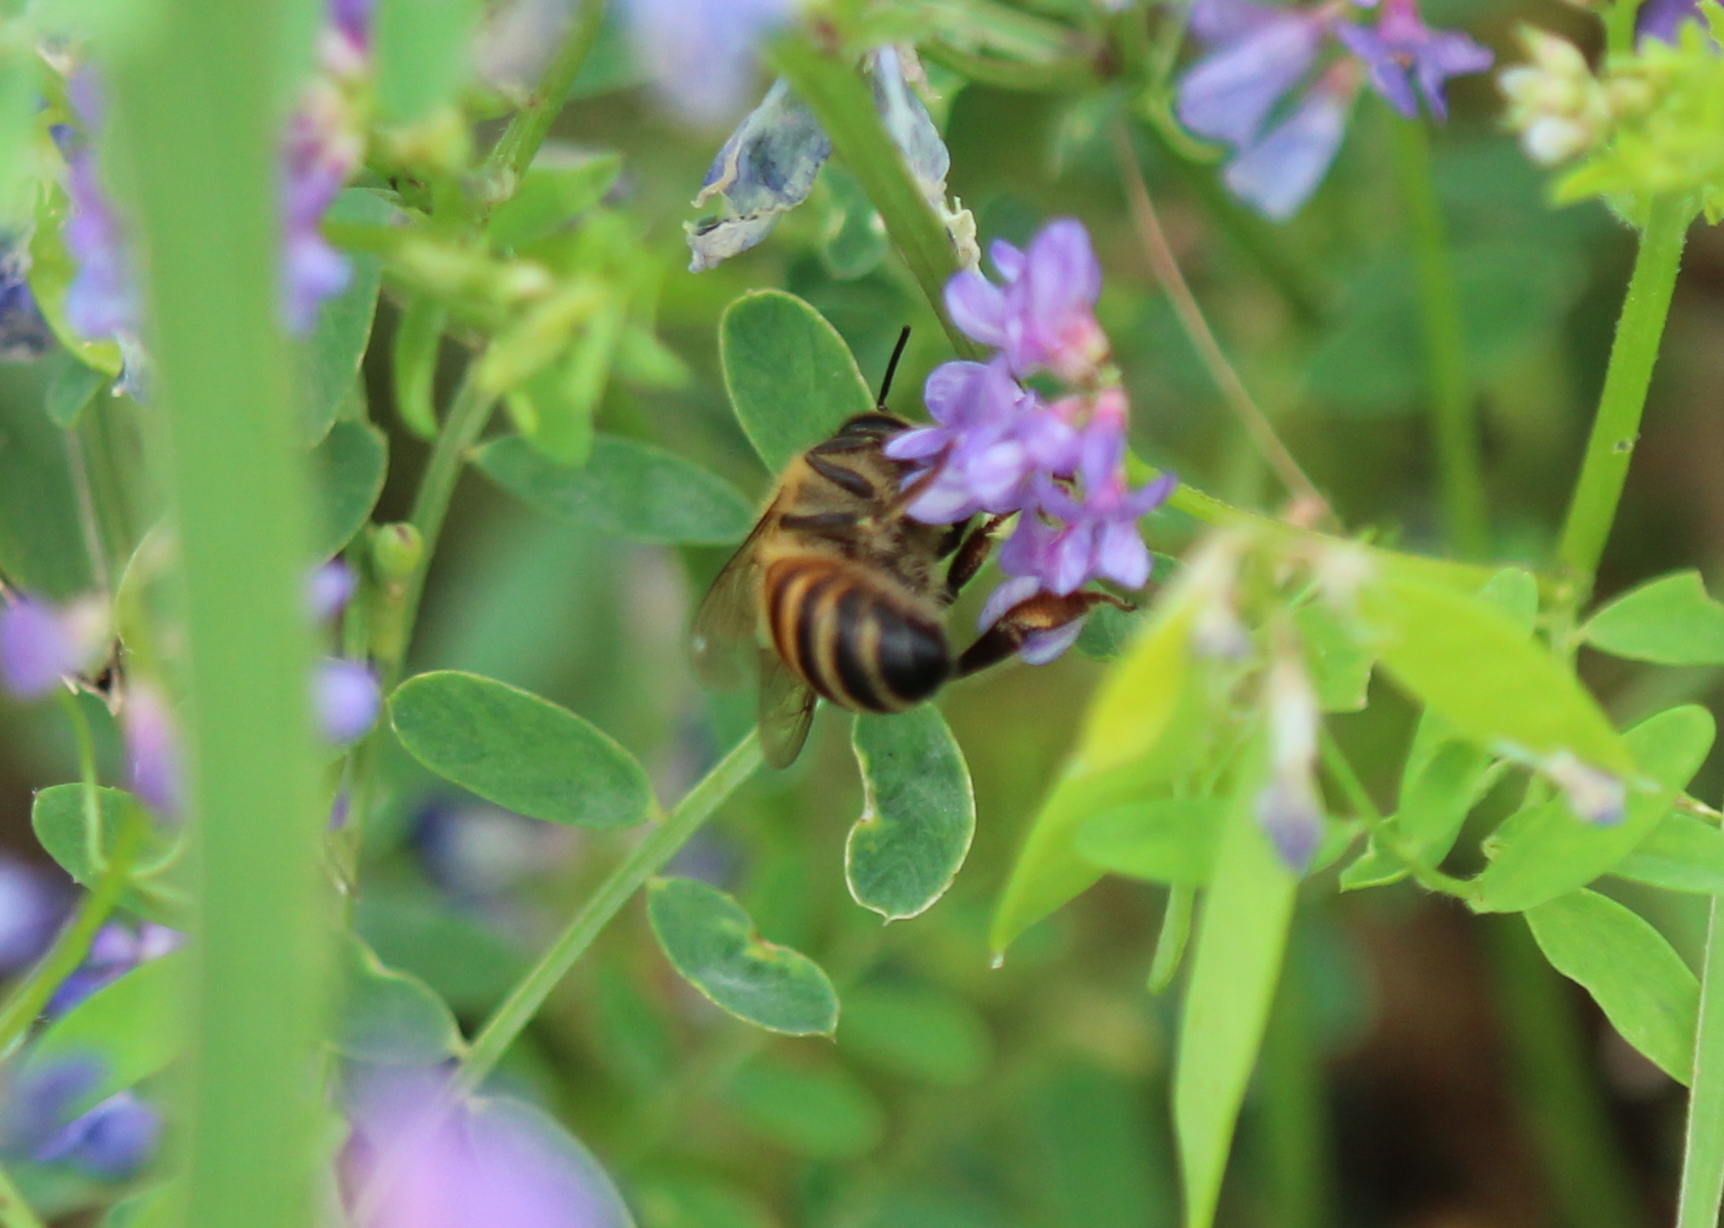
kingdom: Animalia
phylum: Arthropoda
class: Insecta
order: Hymenoptera
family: Apidae
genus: Apis
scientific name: Apis mellifera
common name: Honey bee
